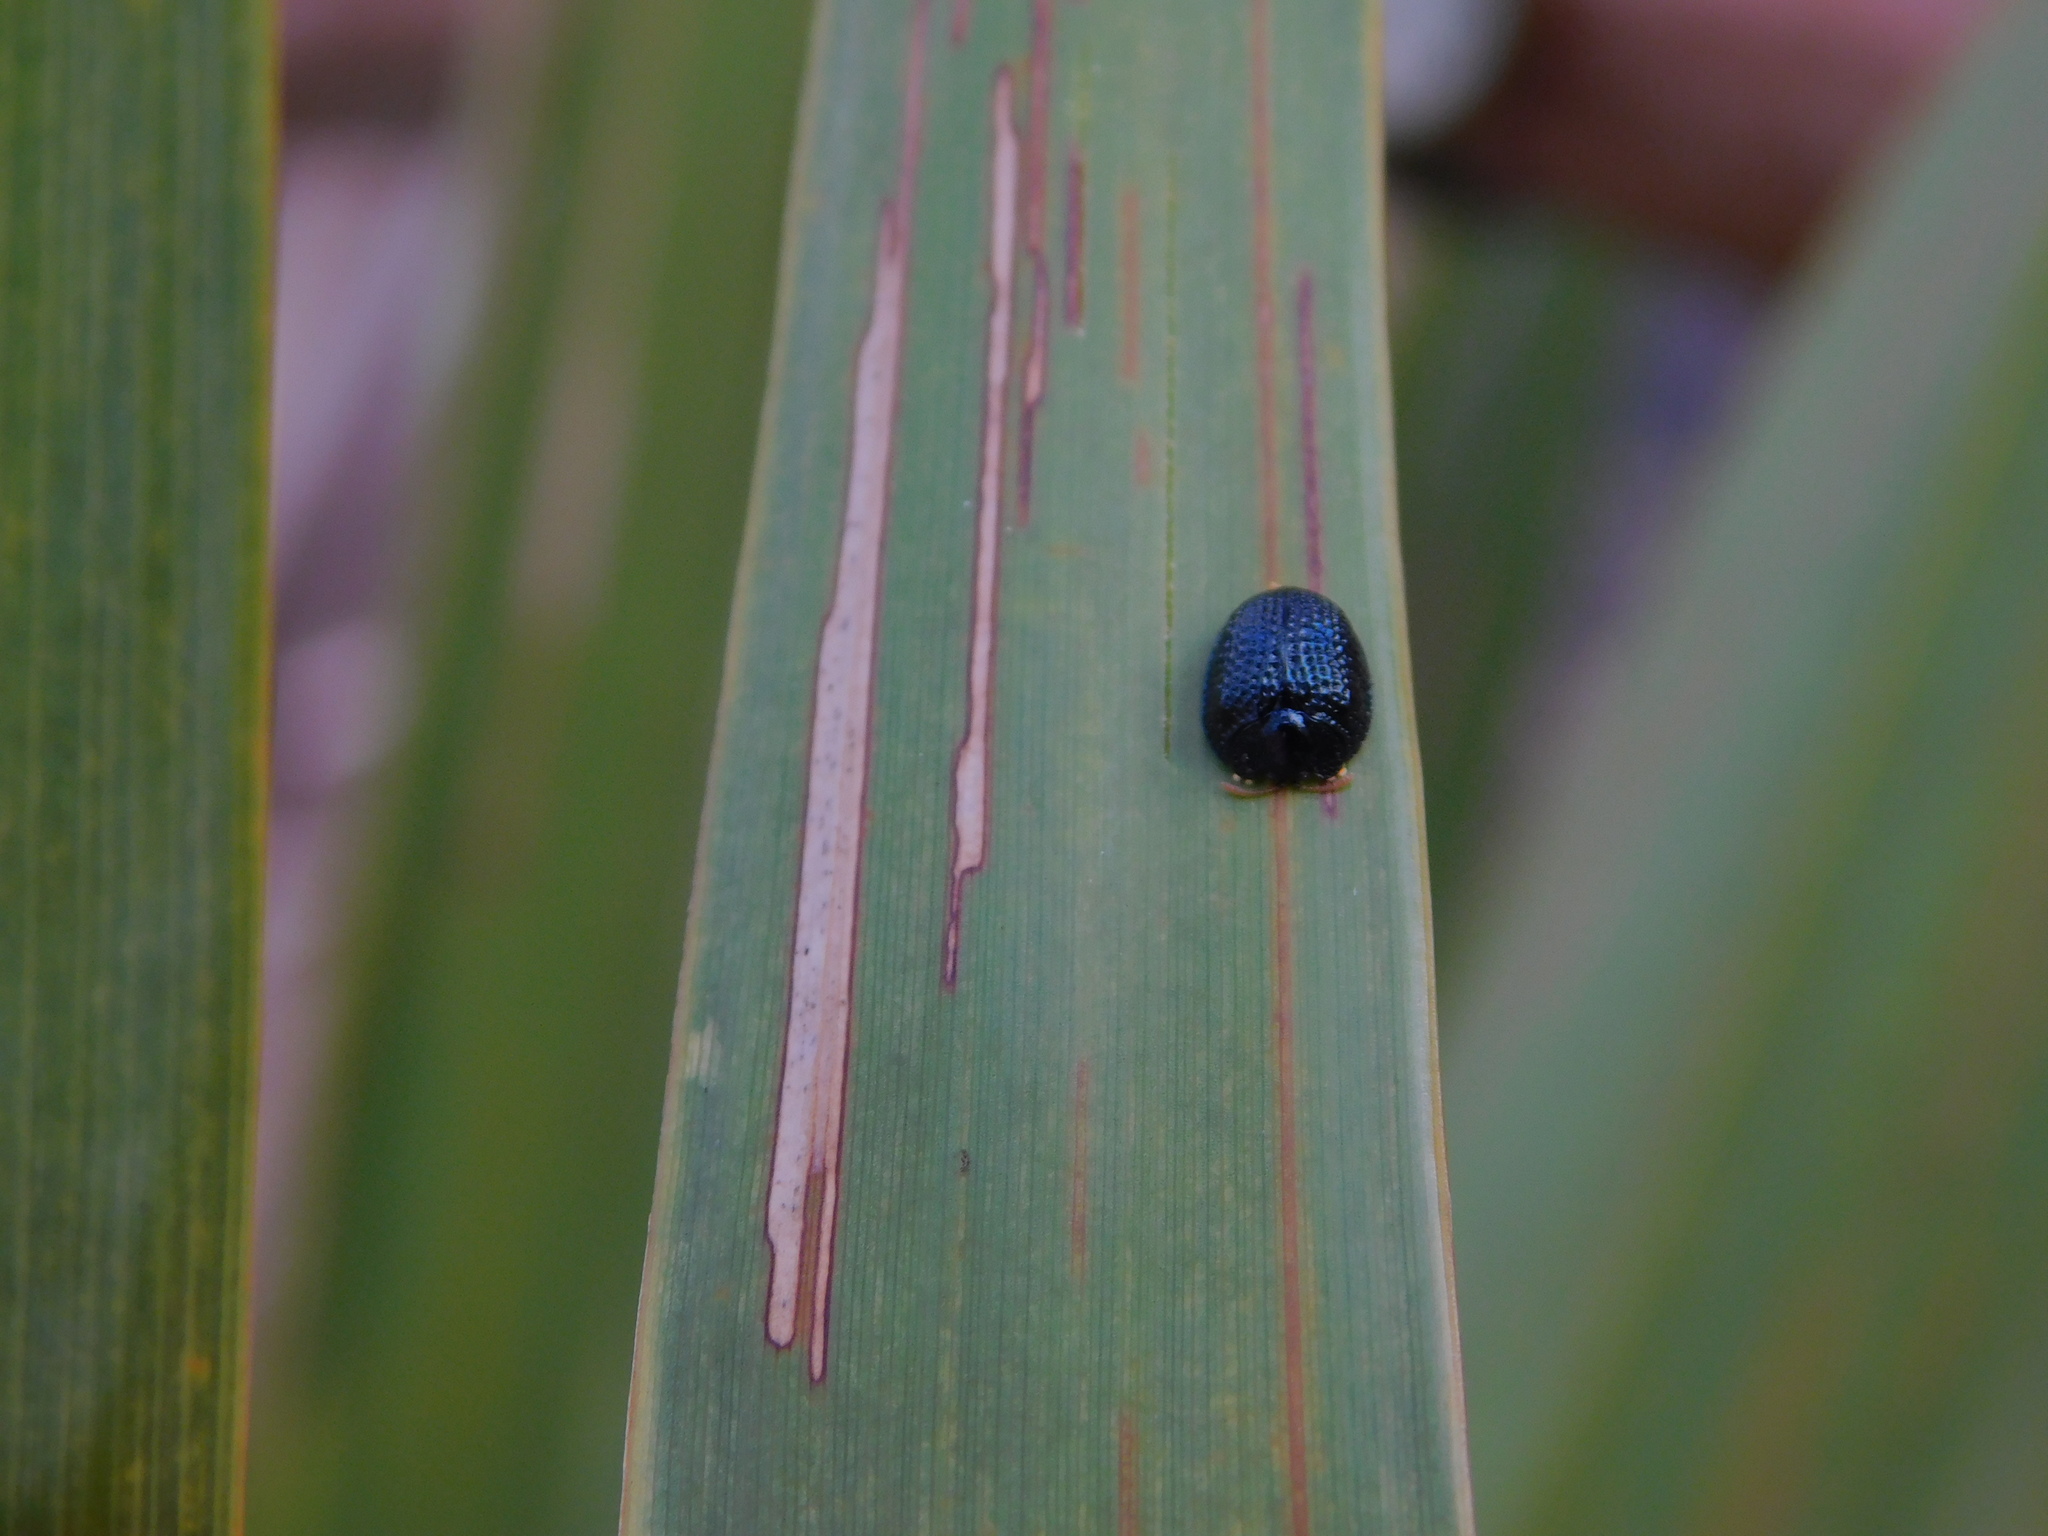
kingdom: Animalia
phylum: Arthropoda
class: Insecta
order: Coleoptera
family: Chrysomelidae
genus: Hemisphaerota
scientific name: Hemisphaerota cyanea
